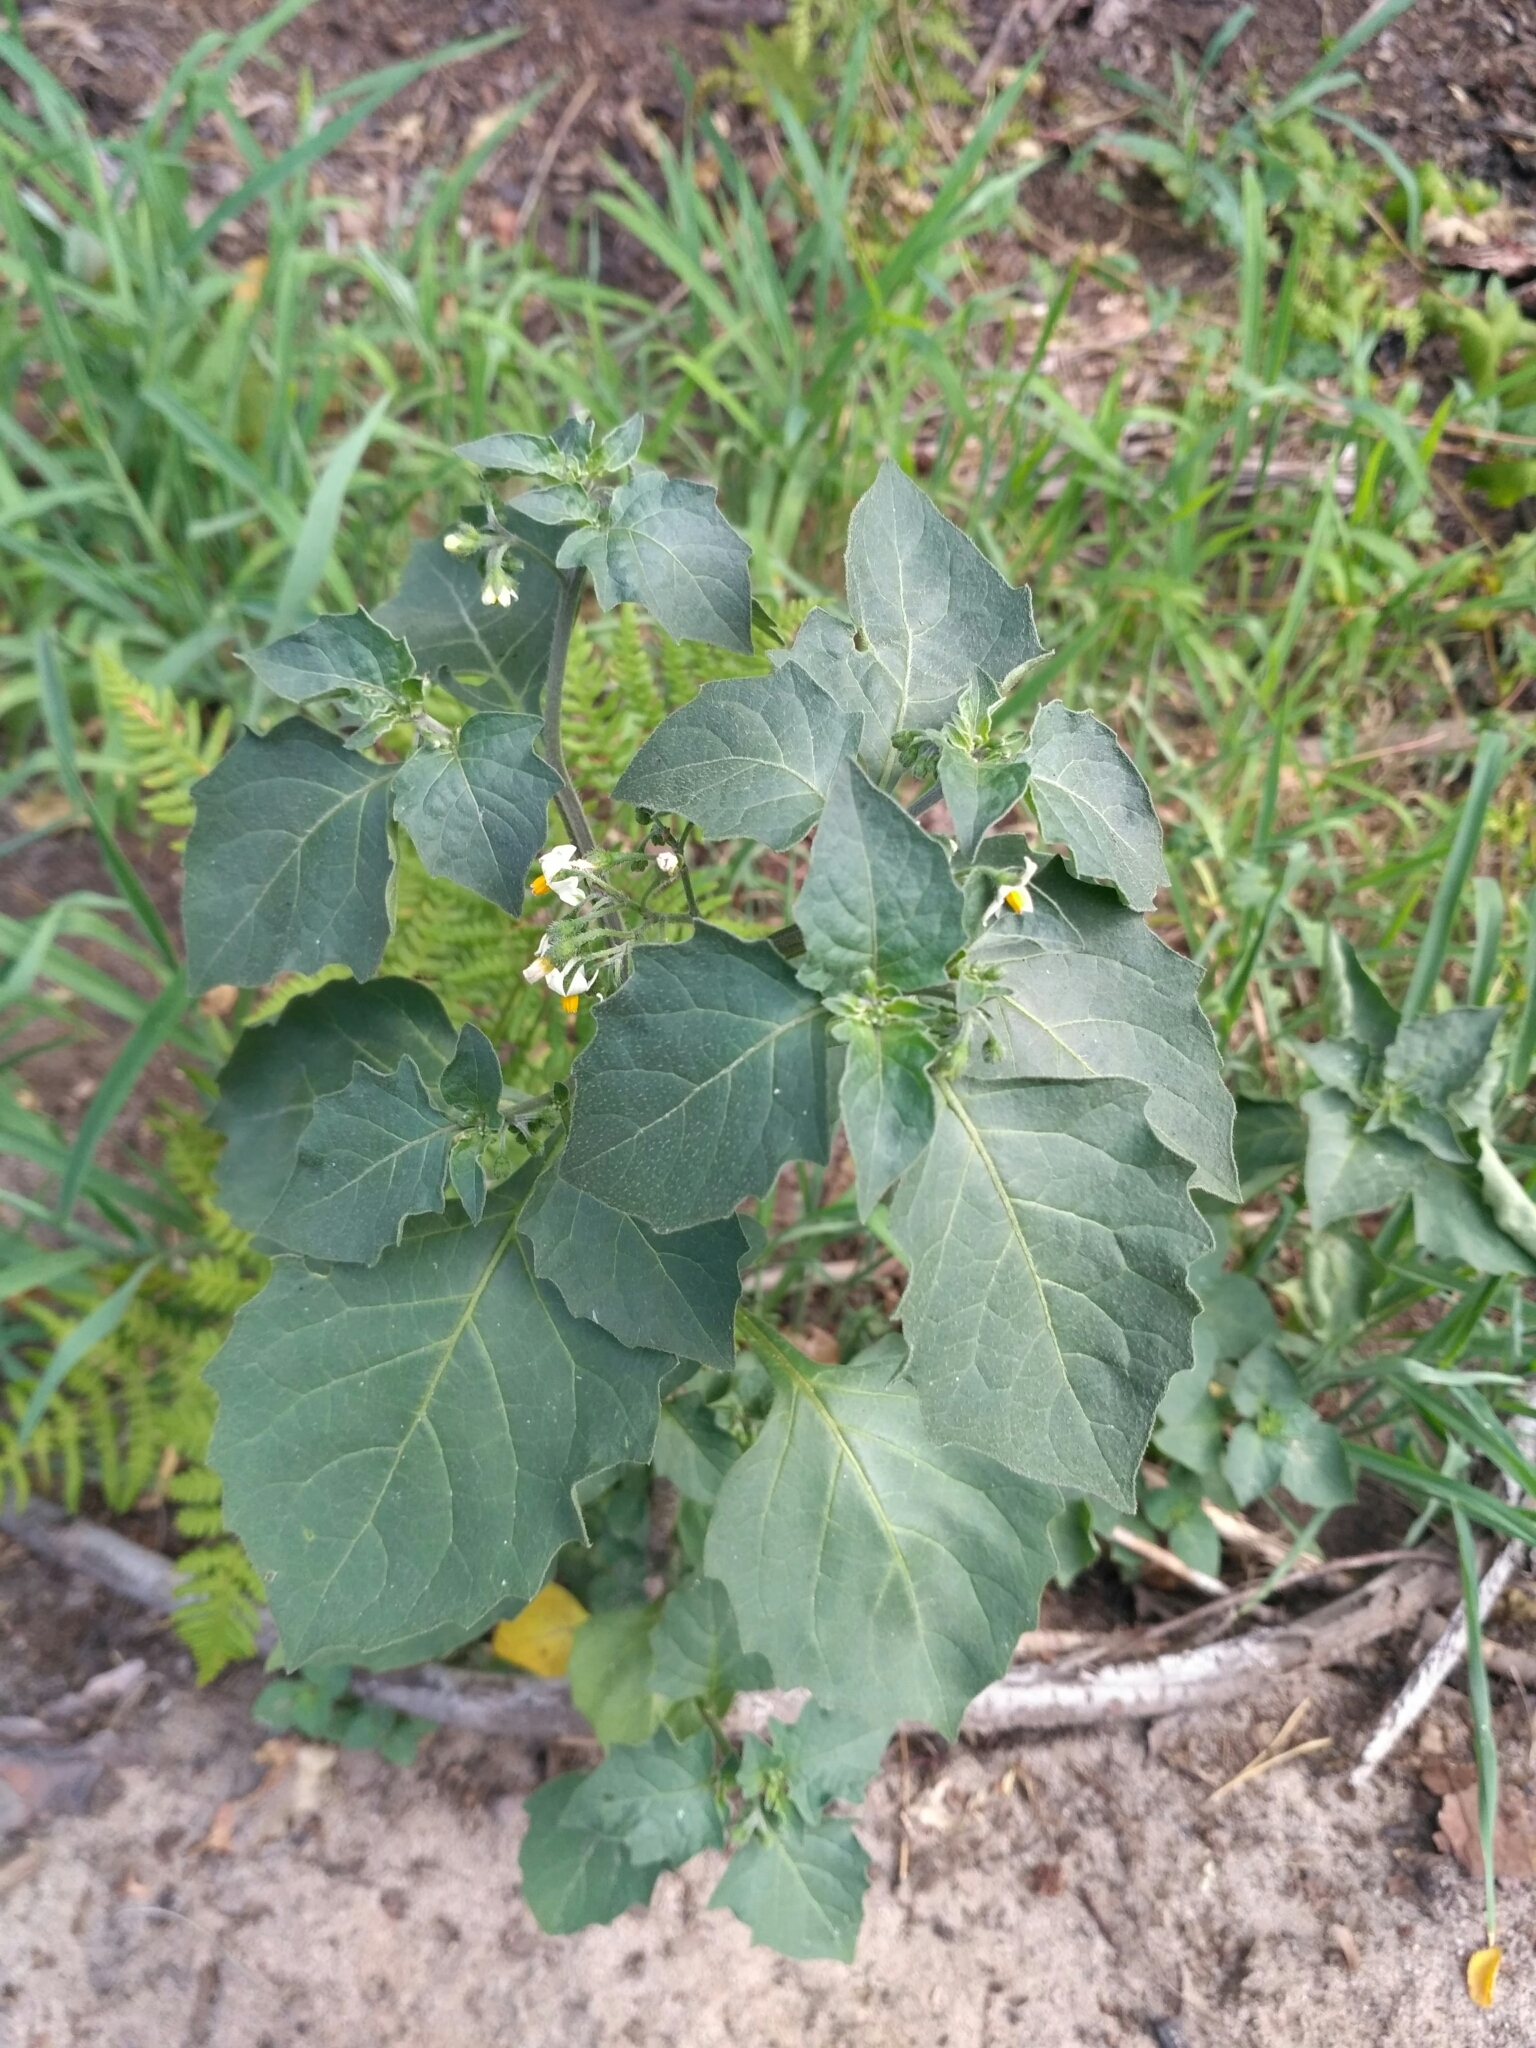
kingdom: Plantae
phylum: Tracheophyta
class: Magnoliopsida
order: Solanales
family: Solanaceae
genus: Solanum
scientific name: Solanum nigrum
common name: Black nightshade
